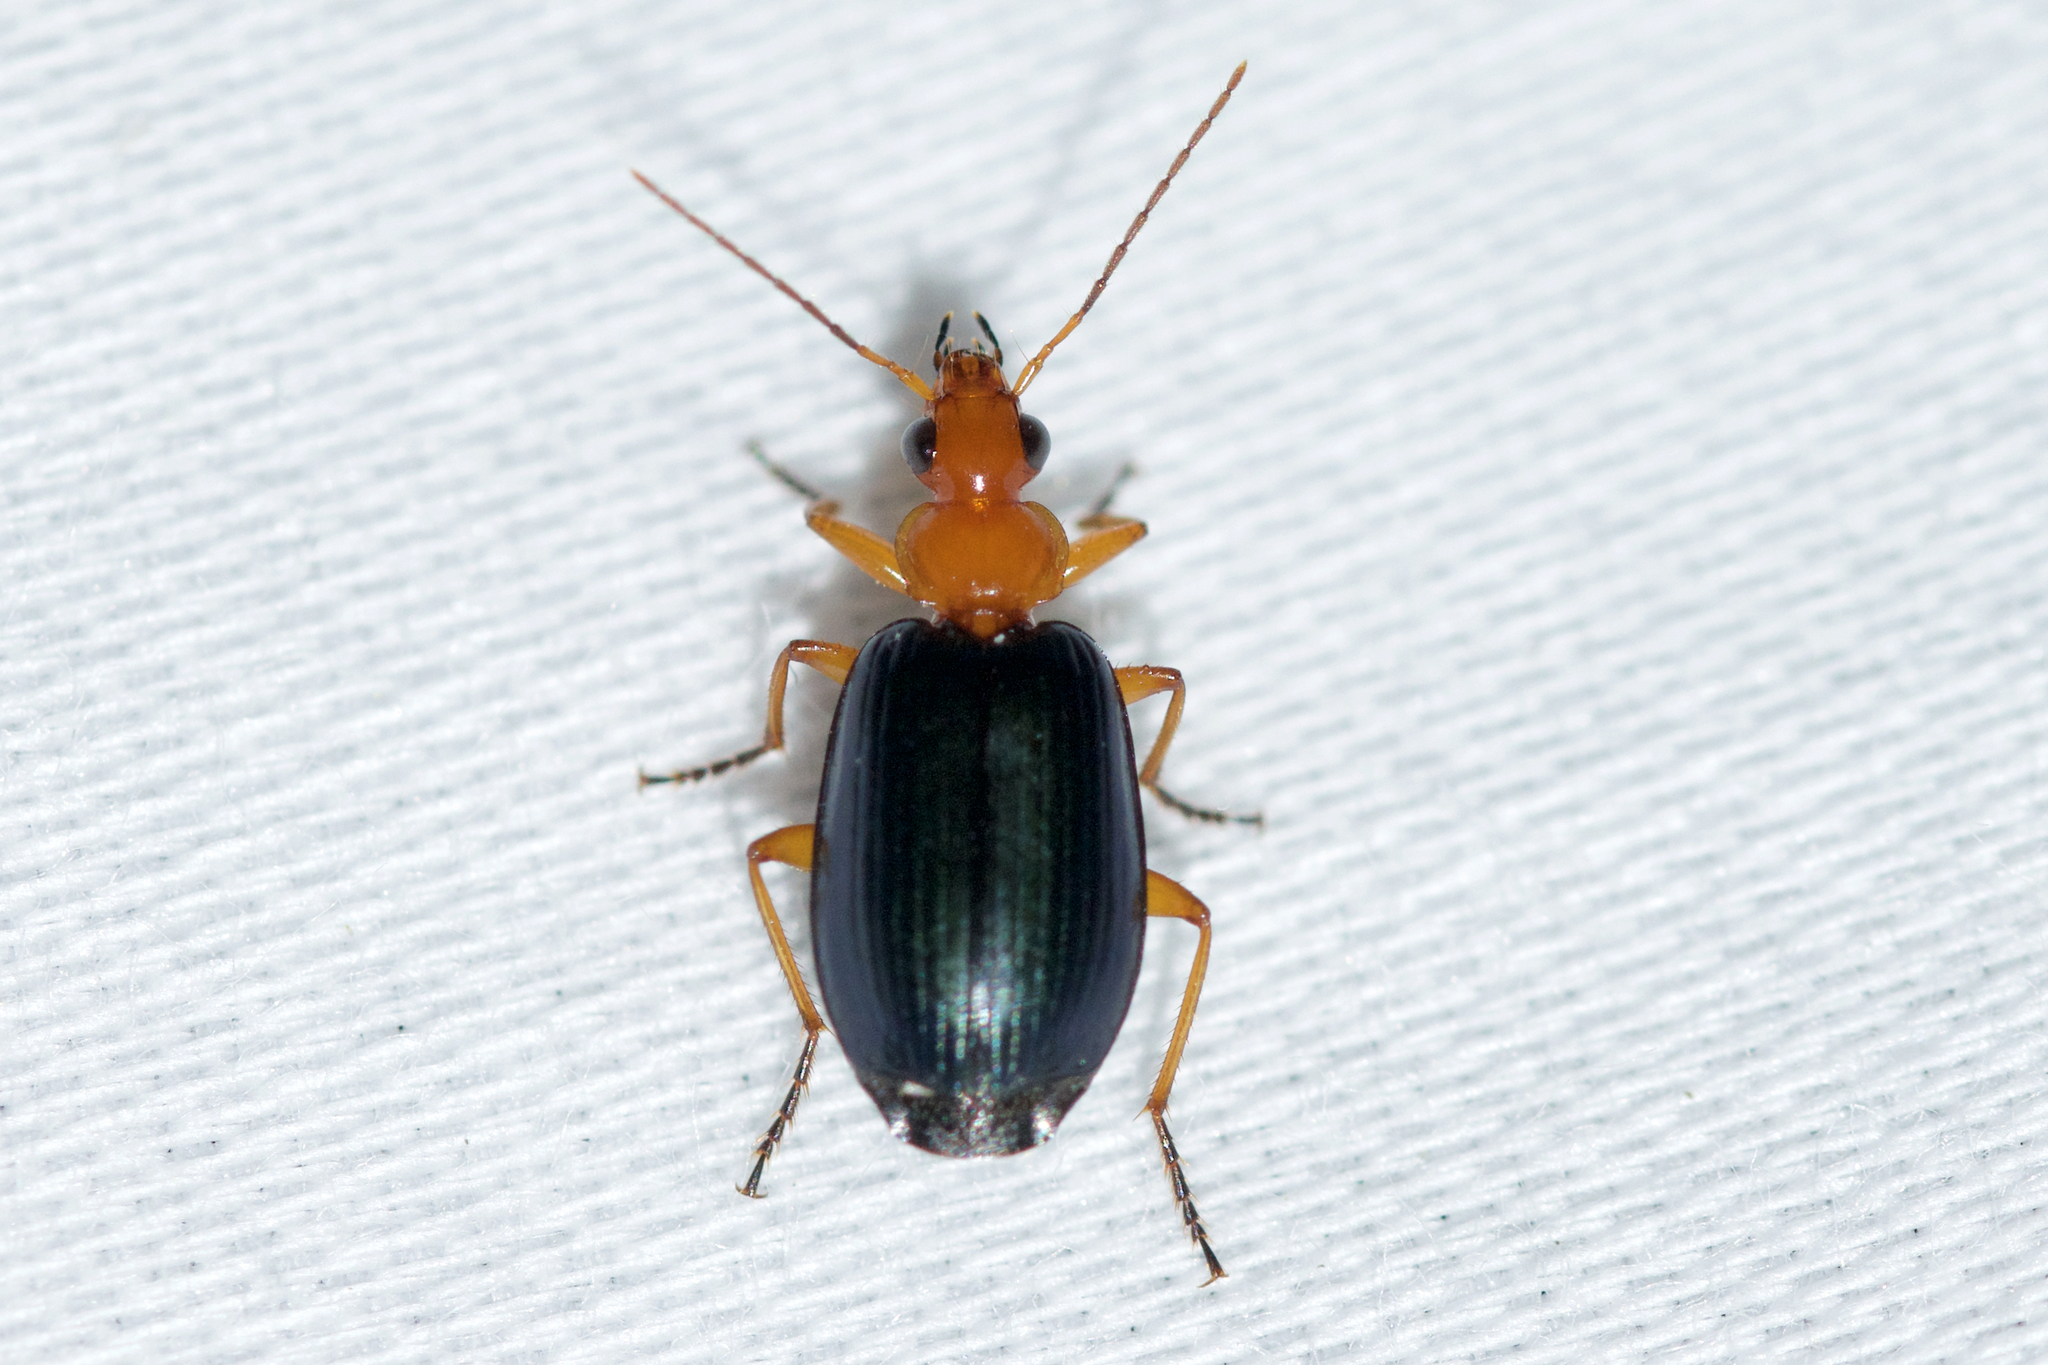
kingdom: Animalia
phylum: Arthropoda
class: Insecta
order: Coleoptera
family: Carabidae
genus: Lebia
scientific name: Lebia atriventris
